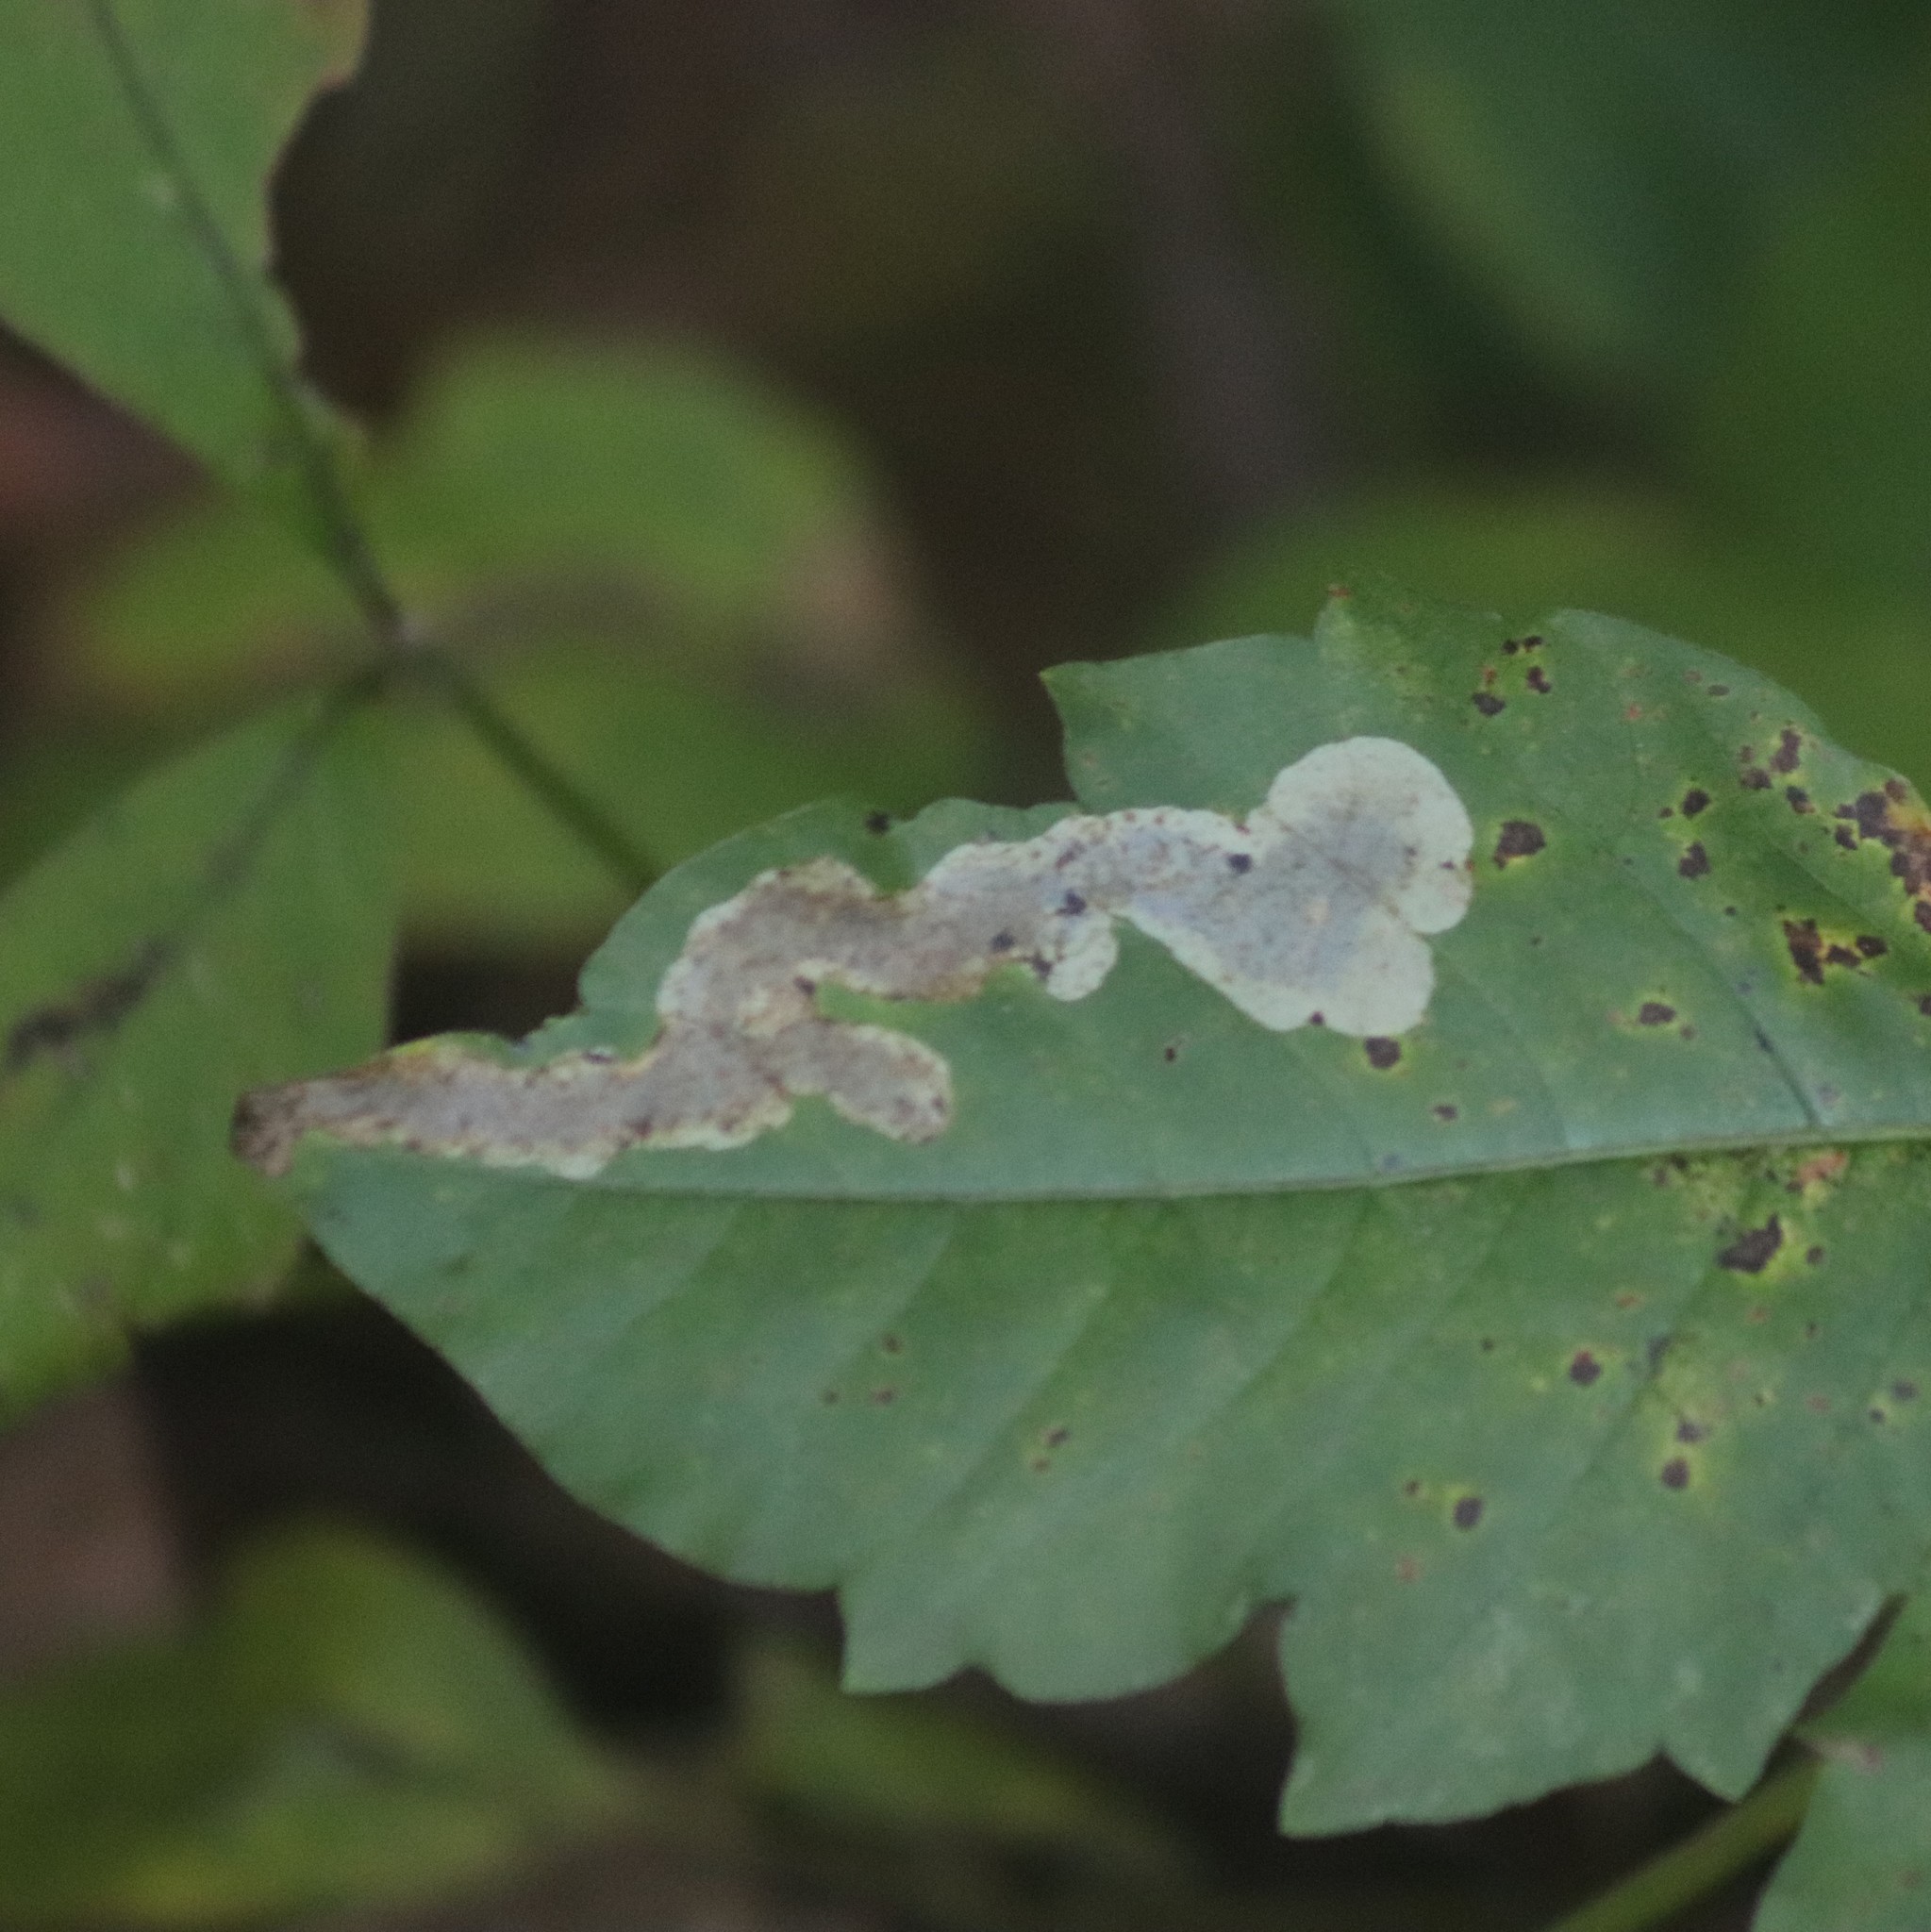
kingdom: Animalia
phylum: Arthropoda
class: Insecta
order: Lepidoptera
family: Gracillariidae
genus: Cameraria
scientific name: Cameraria guttifinitella
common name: Poison ivy leaf-miner moth
